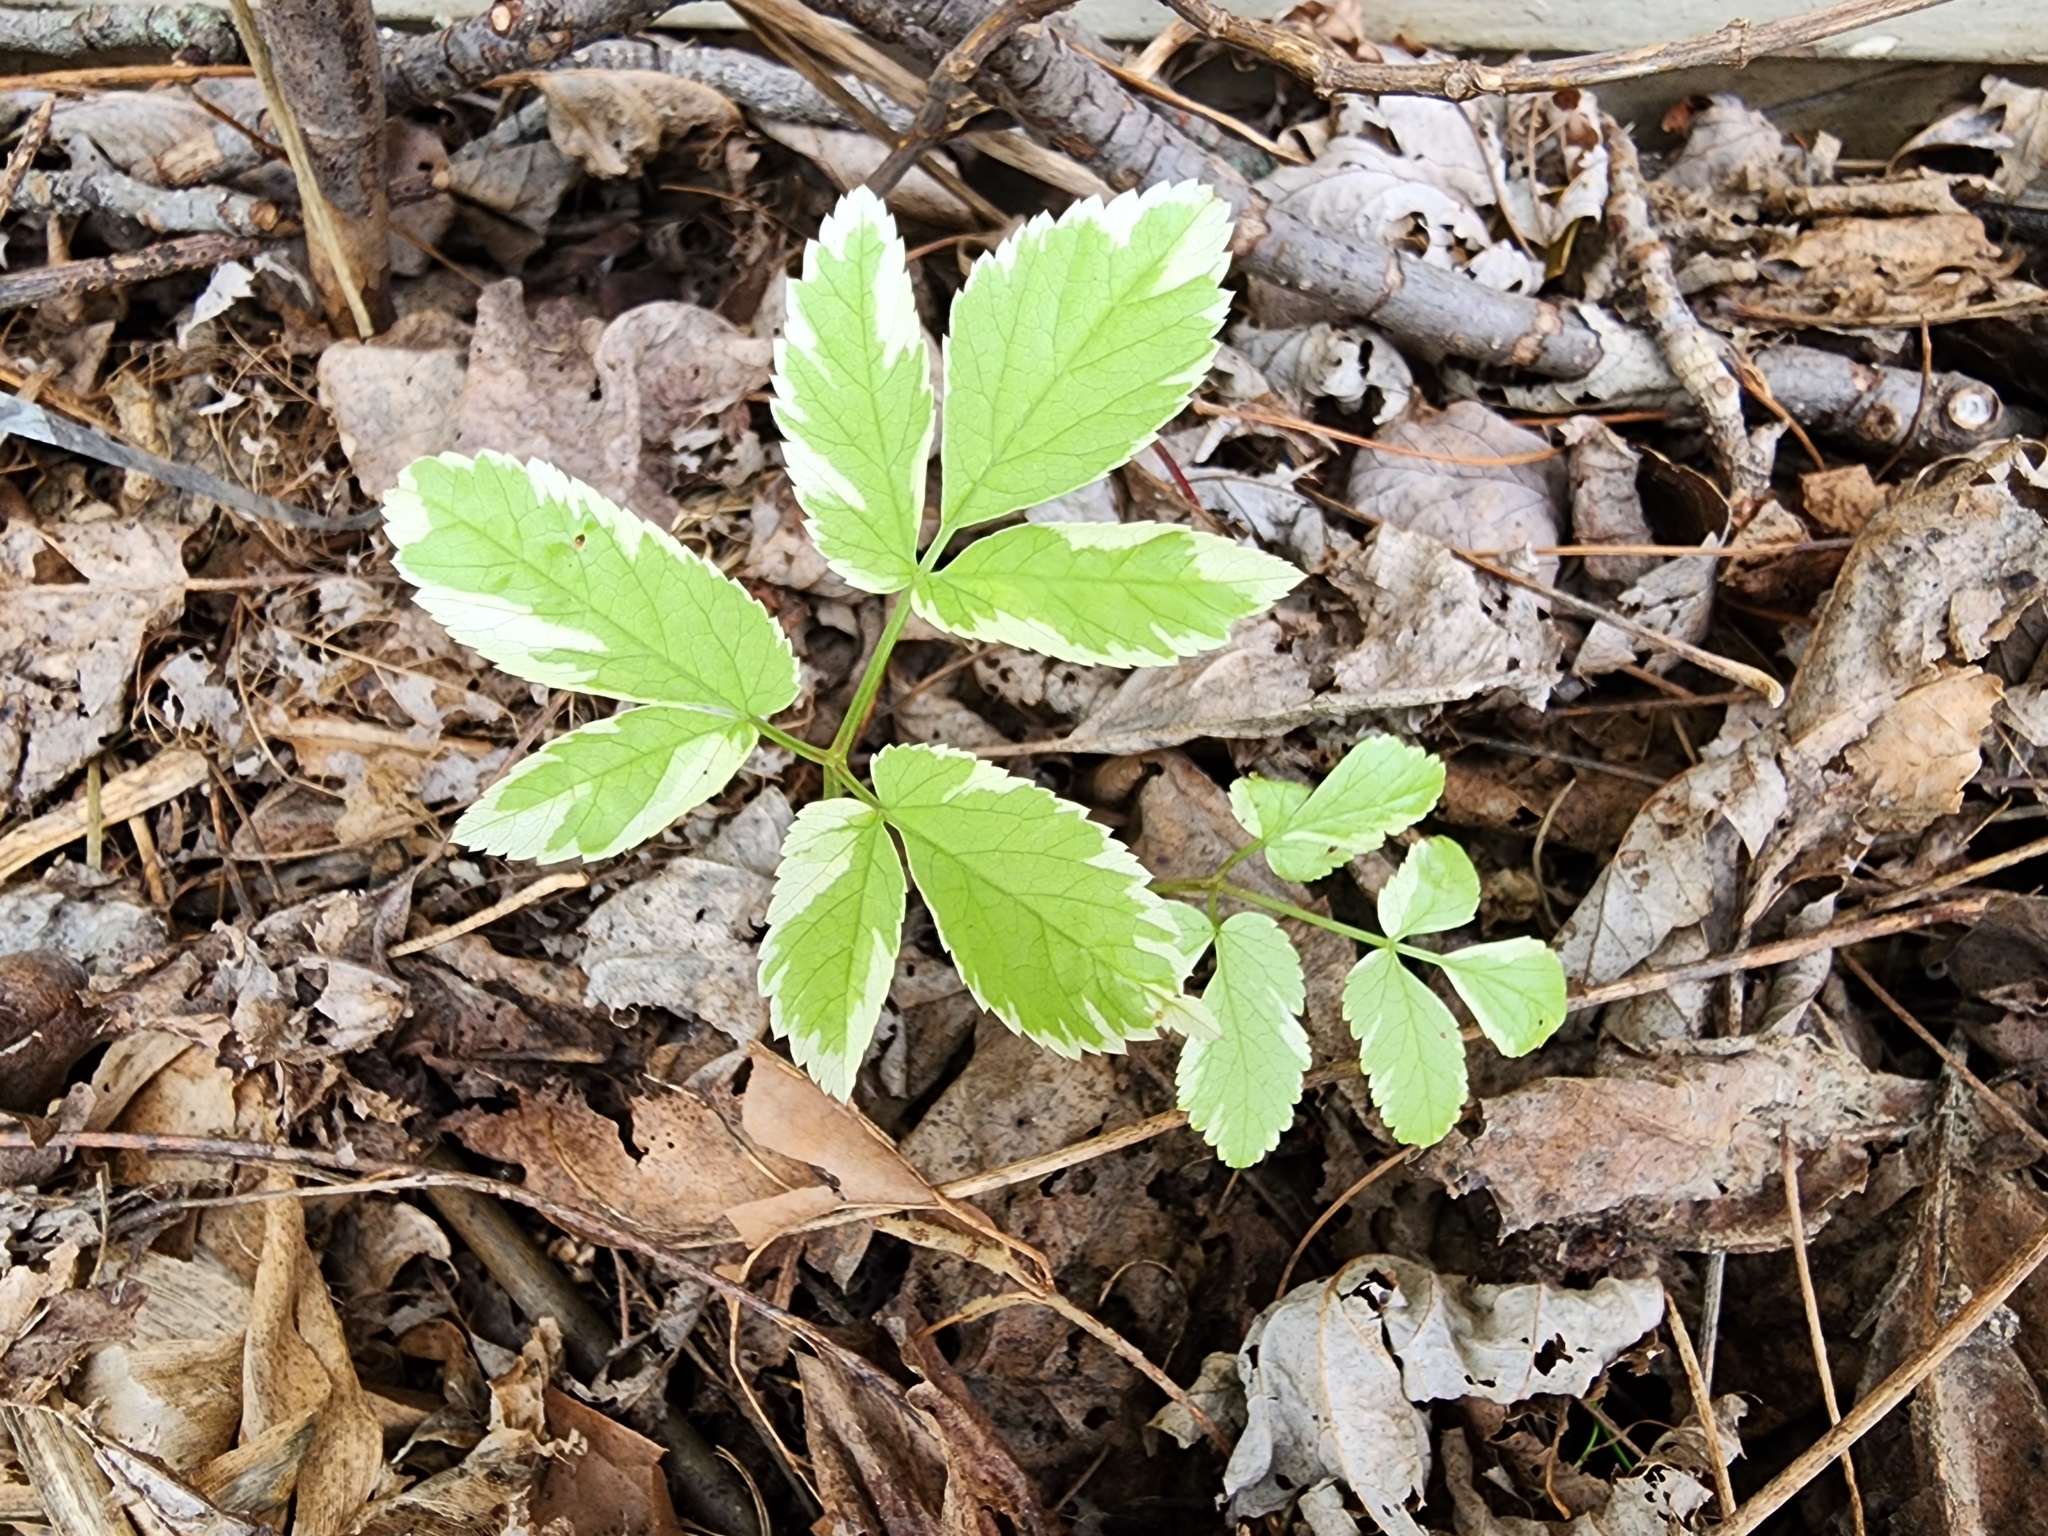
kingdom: Plantae
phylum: Tracheophyta
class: Magnoliopsida
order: Apiales
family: Apiaceae
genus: Aegopodium
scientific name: Aegopodium podagraria
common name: Ground-elder
